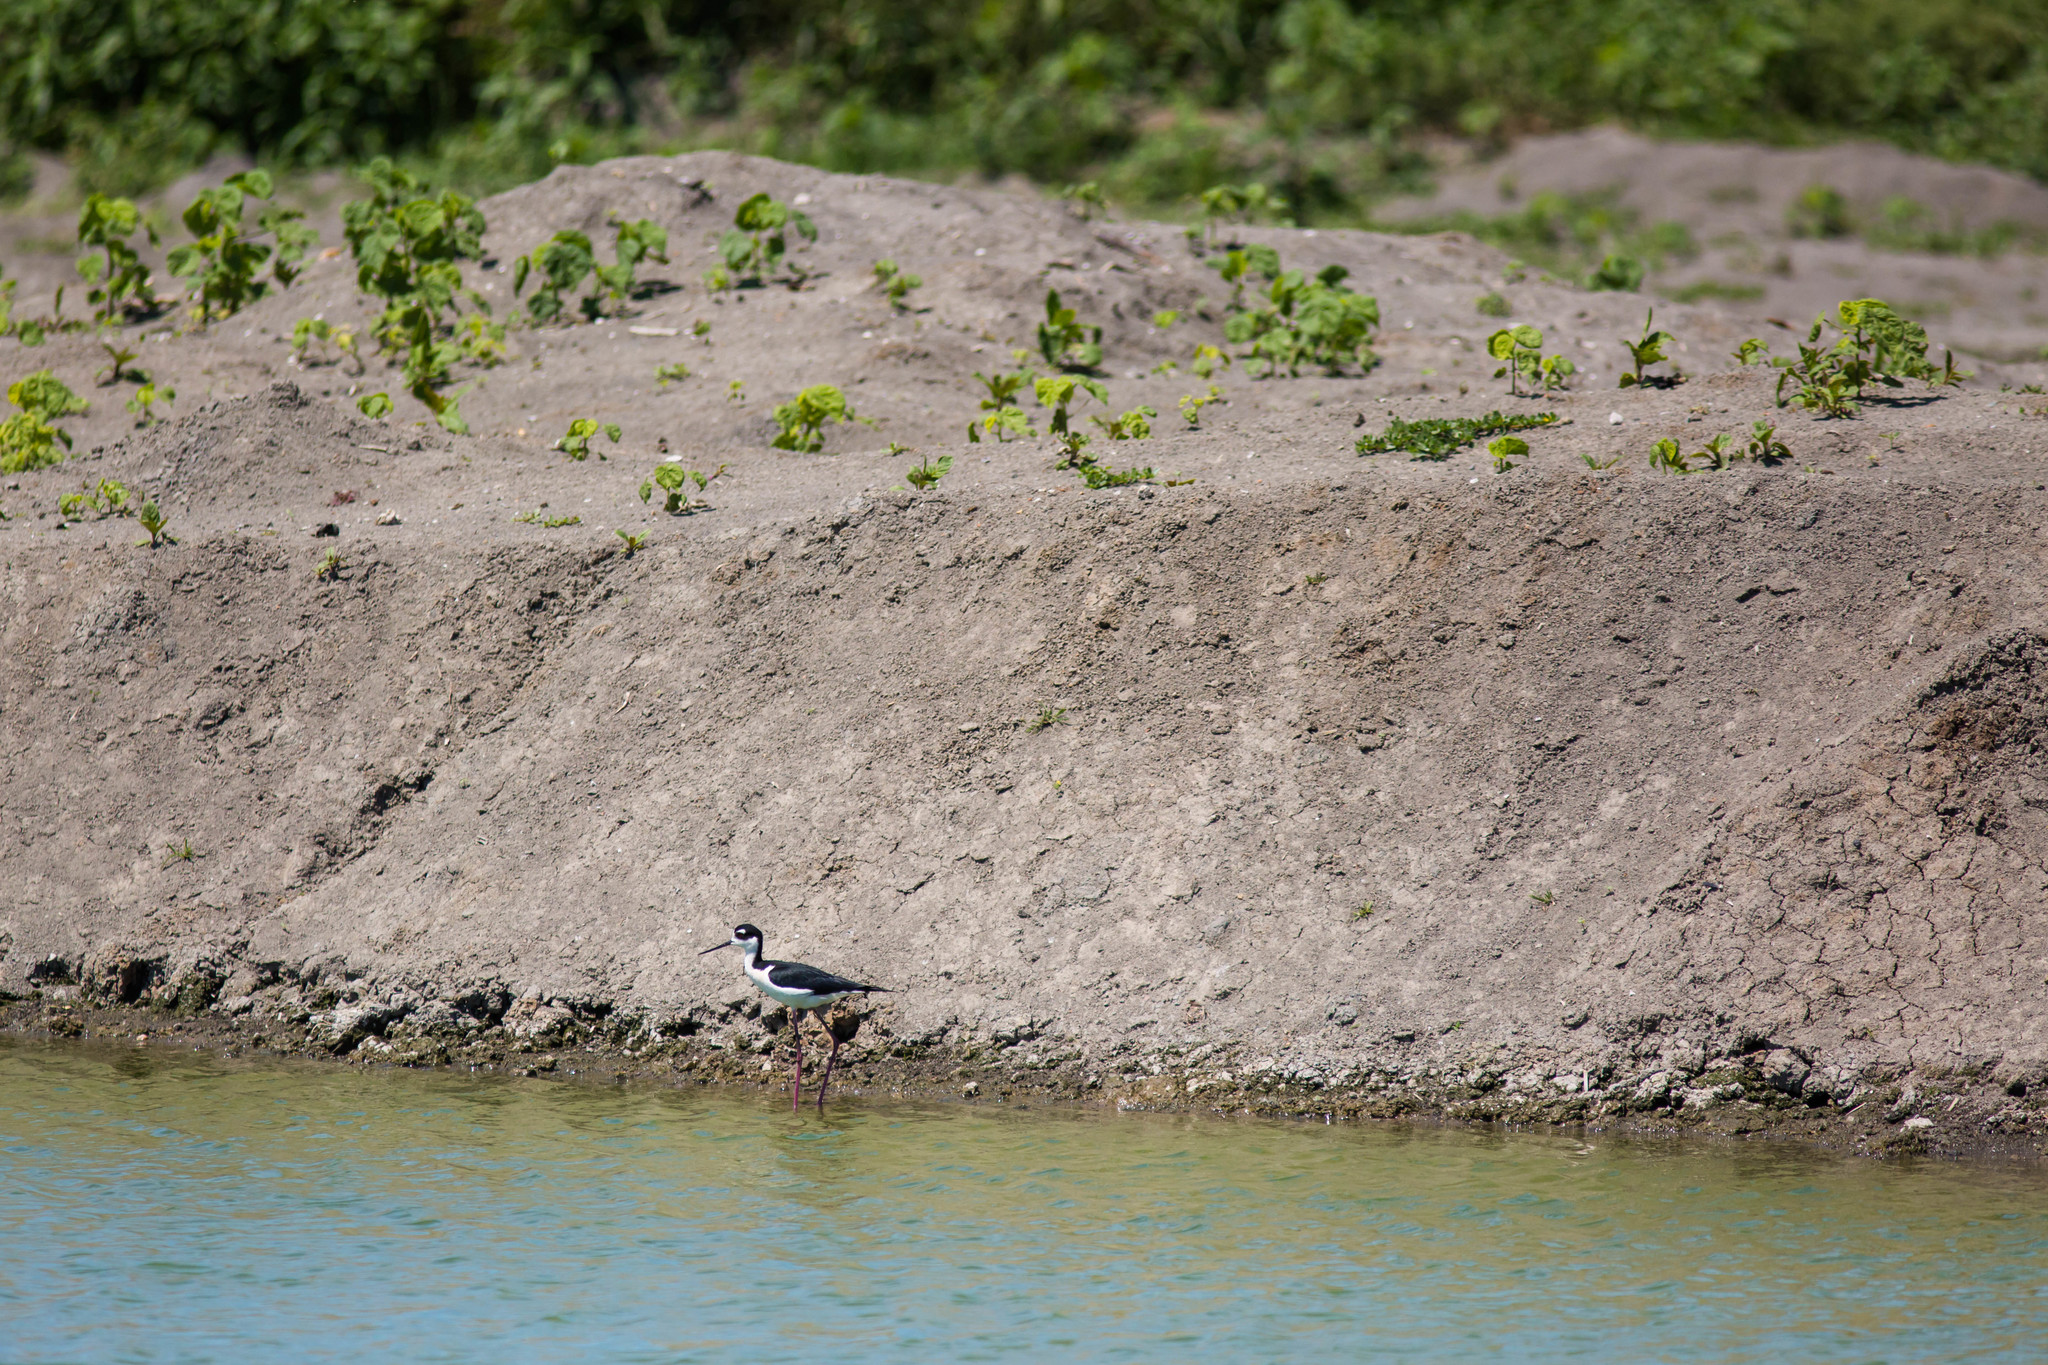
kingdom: Animalia
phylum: Chordata
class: Aves
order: Charadriiformes
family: Recurvirostridae
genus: Himantopus
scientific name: Himantopus mexicanus
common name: Black-necked stilt
